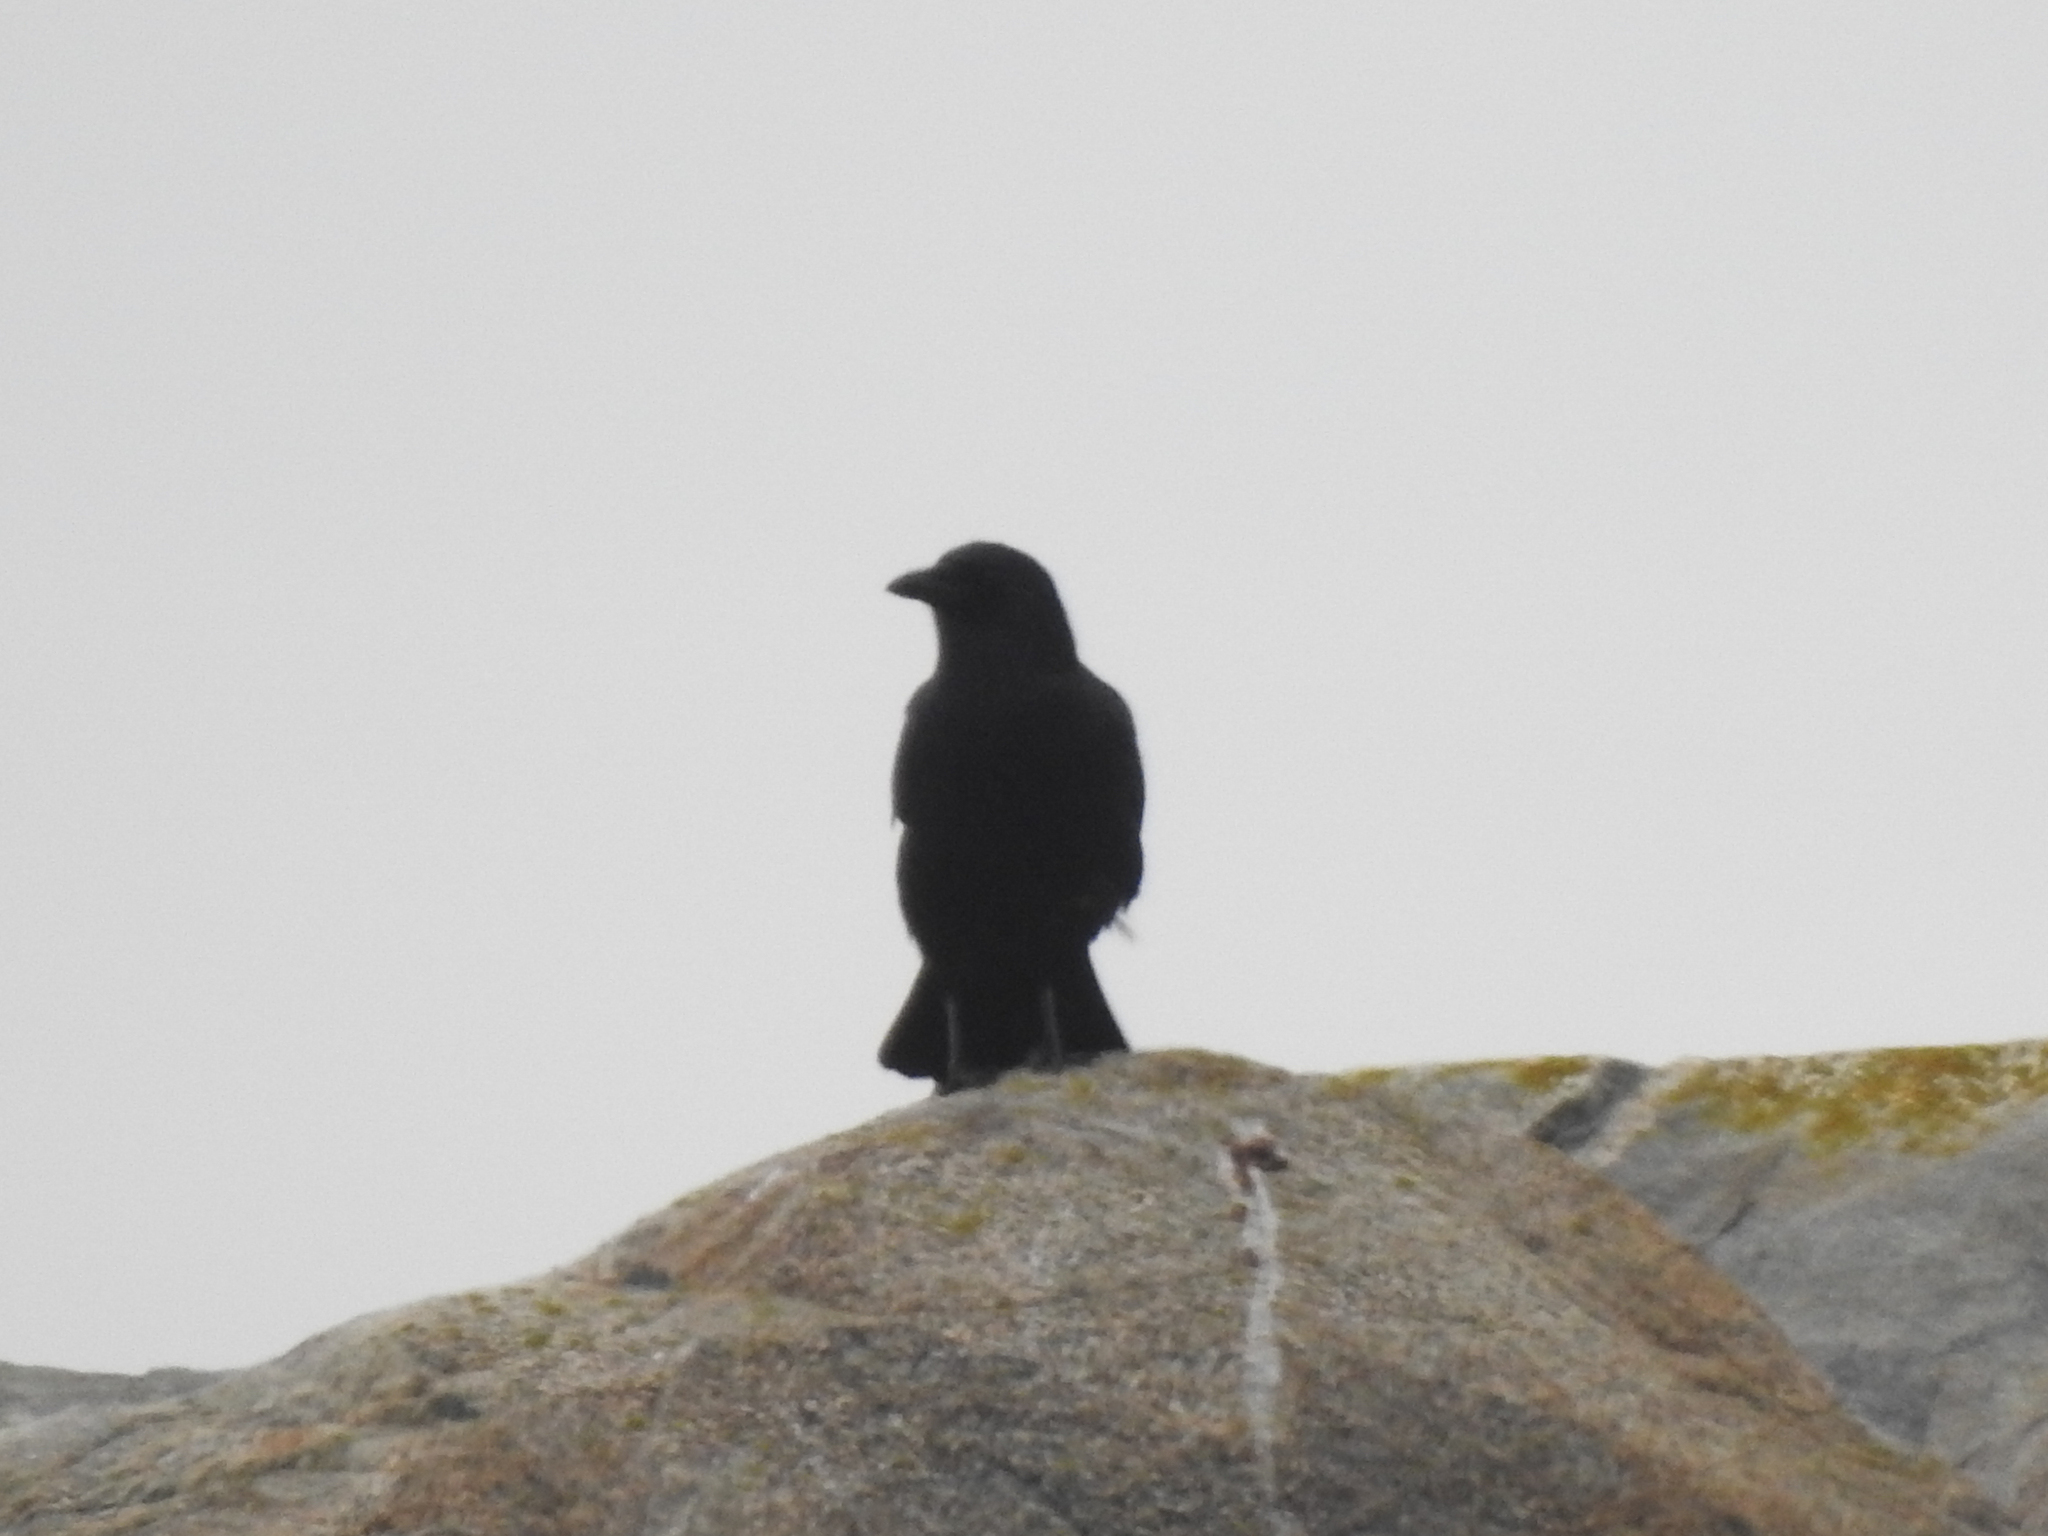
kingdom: Animalia
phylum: Chordata
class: Aves
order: Passeriformes
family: Corvidae
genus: Corvus
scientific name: Corvus brachyrhynchos
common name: American crow
